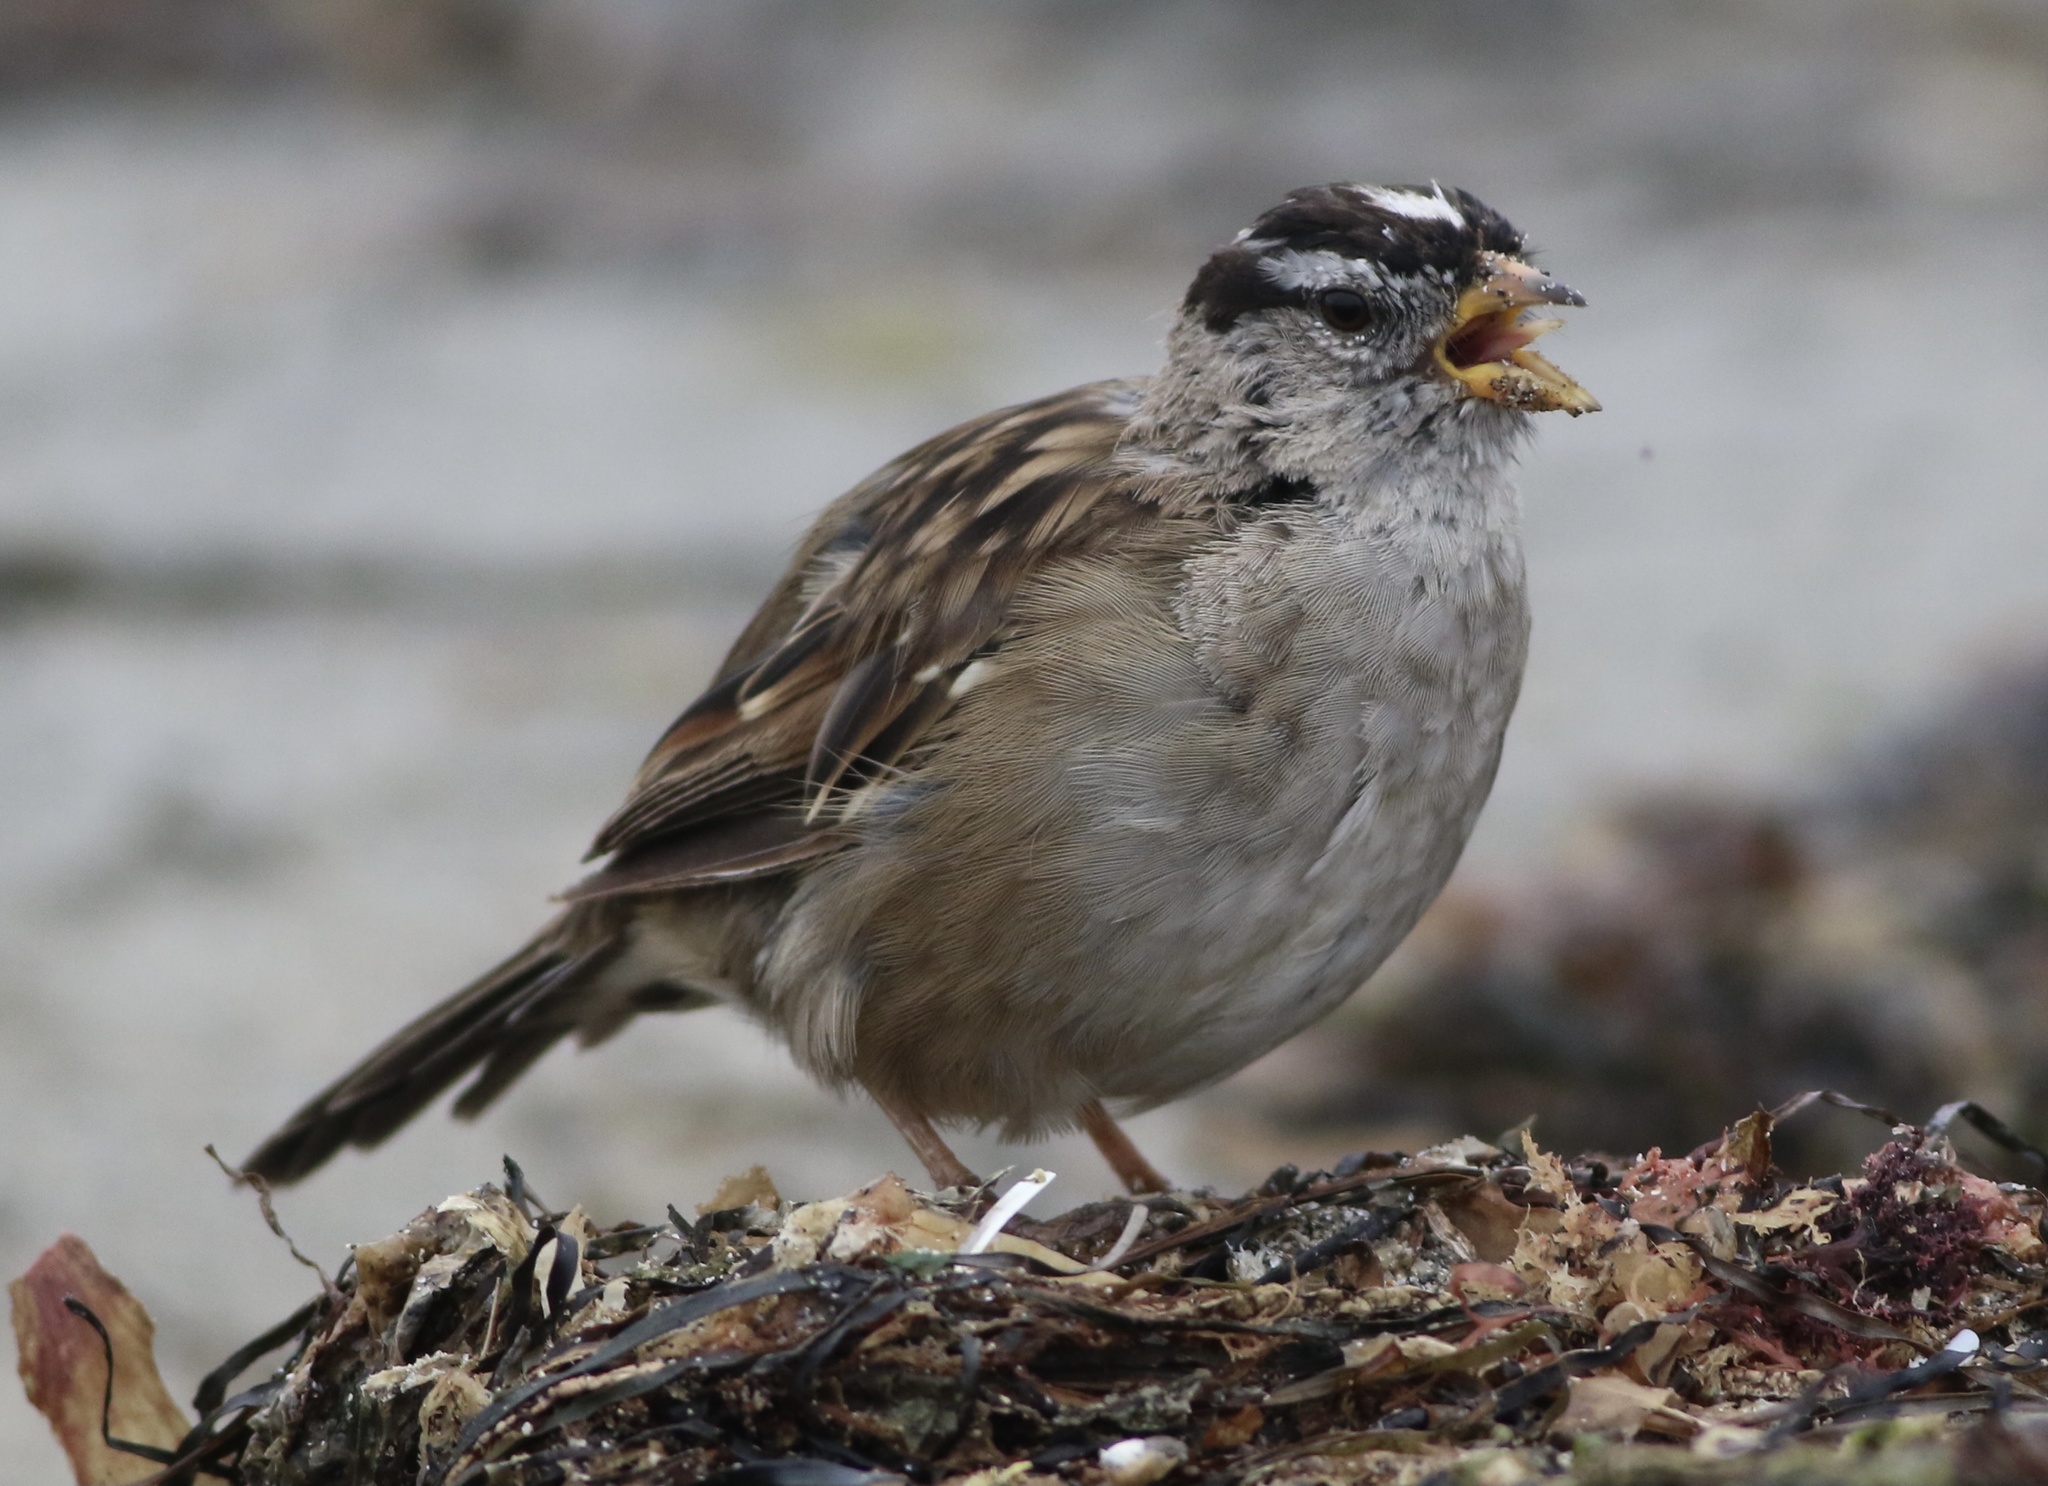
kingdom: Animalia
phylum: Chordata
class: Aves
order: Passeriformes
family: Passerellidae
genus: Zonotrichia
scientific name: Zonotrichia leucophrys
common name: White-crowned sparrow
